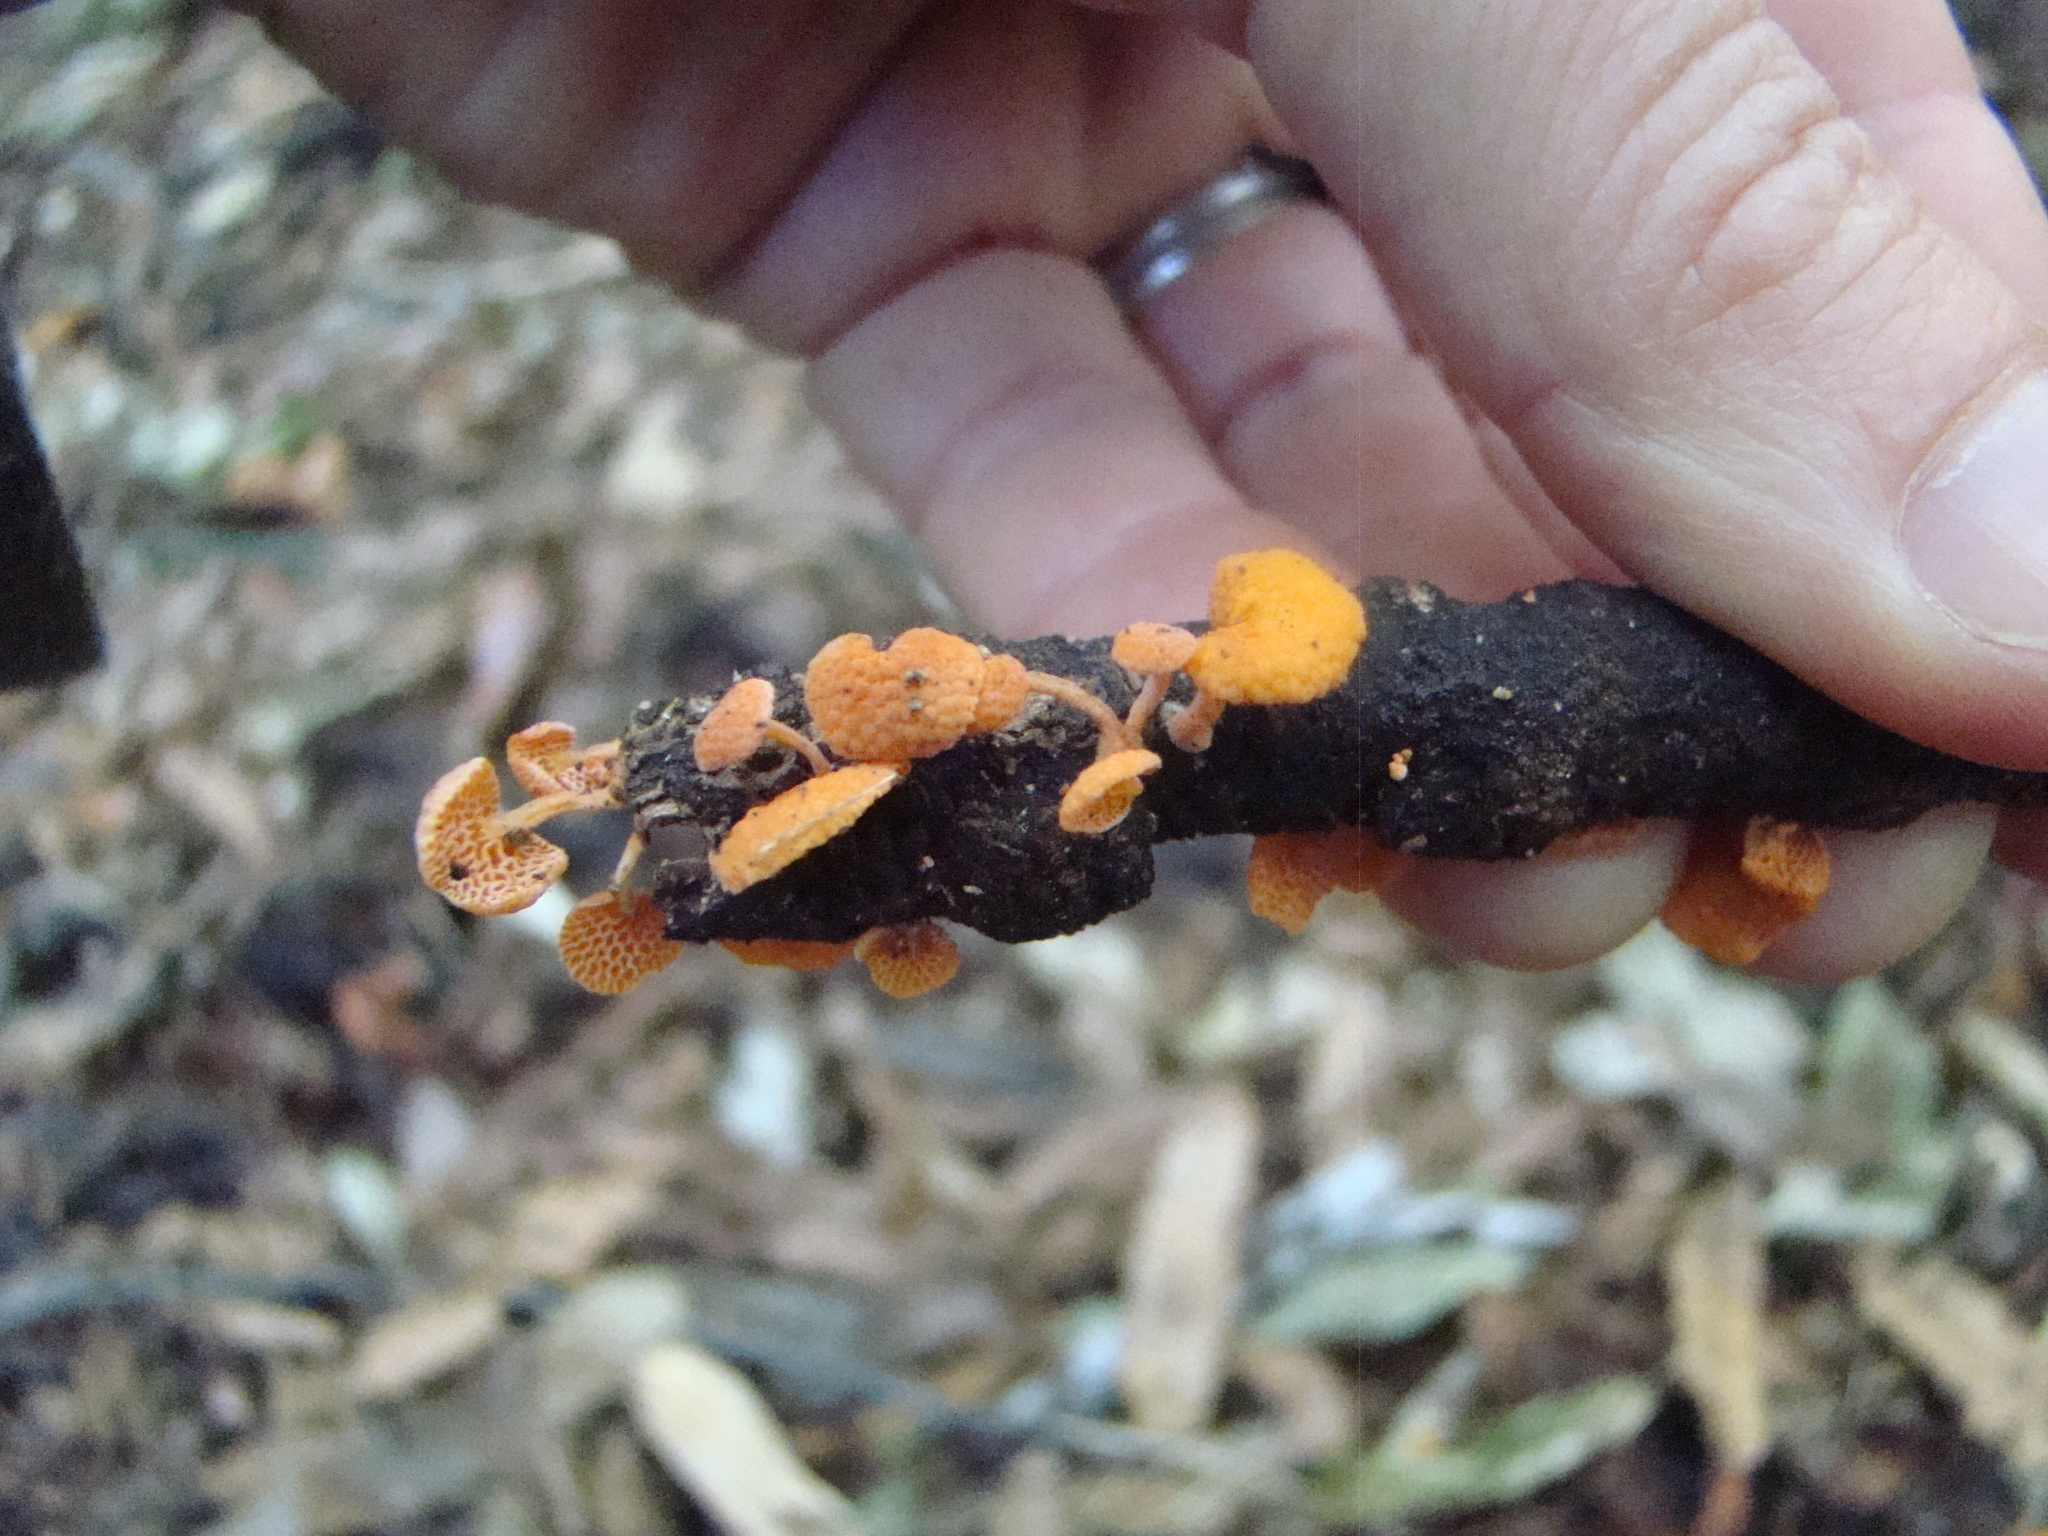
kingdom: Fungi
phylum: Basidiomycota
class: Agaricomycetes
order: Agaricales
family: Mycenaceae
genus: Favolaschia
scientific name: Favolaschia claudopus
